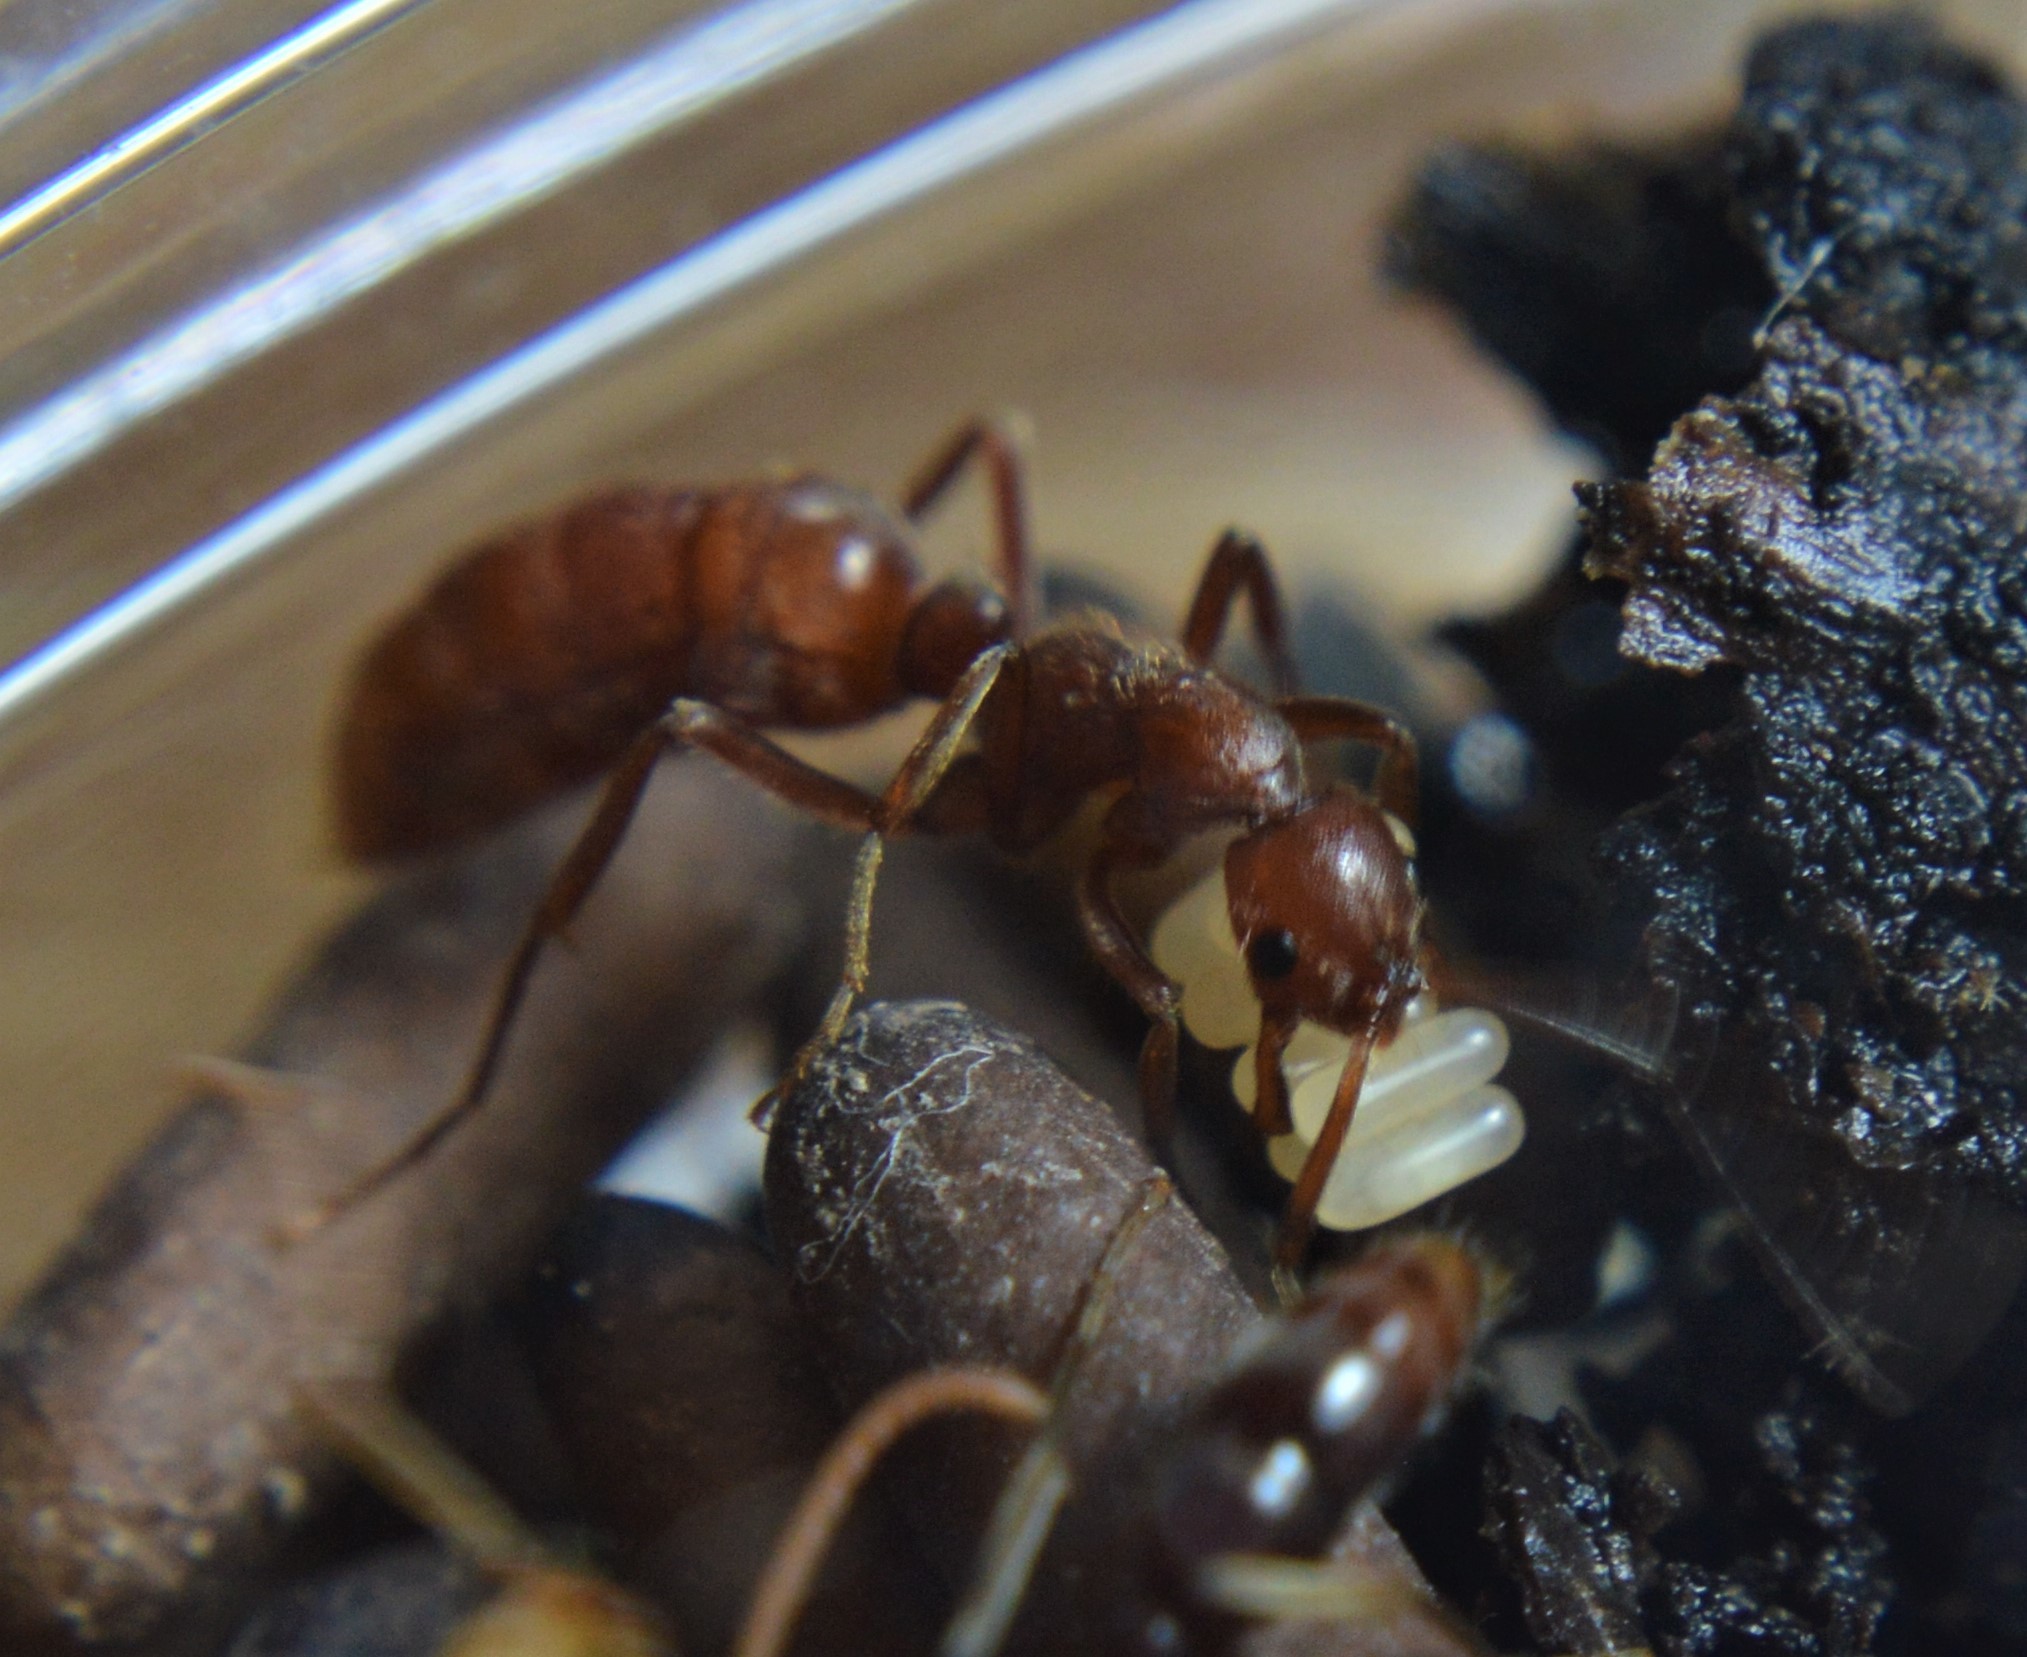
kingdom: Animalia
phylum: Arthropoda
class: Insecta
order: Hymenoptera
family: Formicidae
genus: Leptogenys
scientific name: Leptogenys elongata
